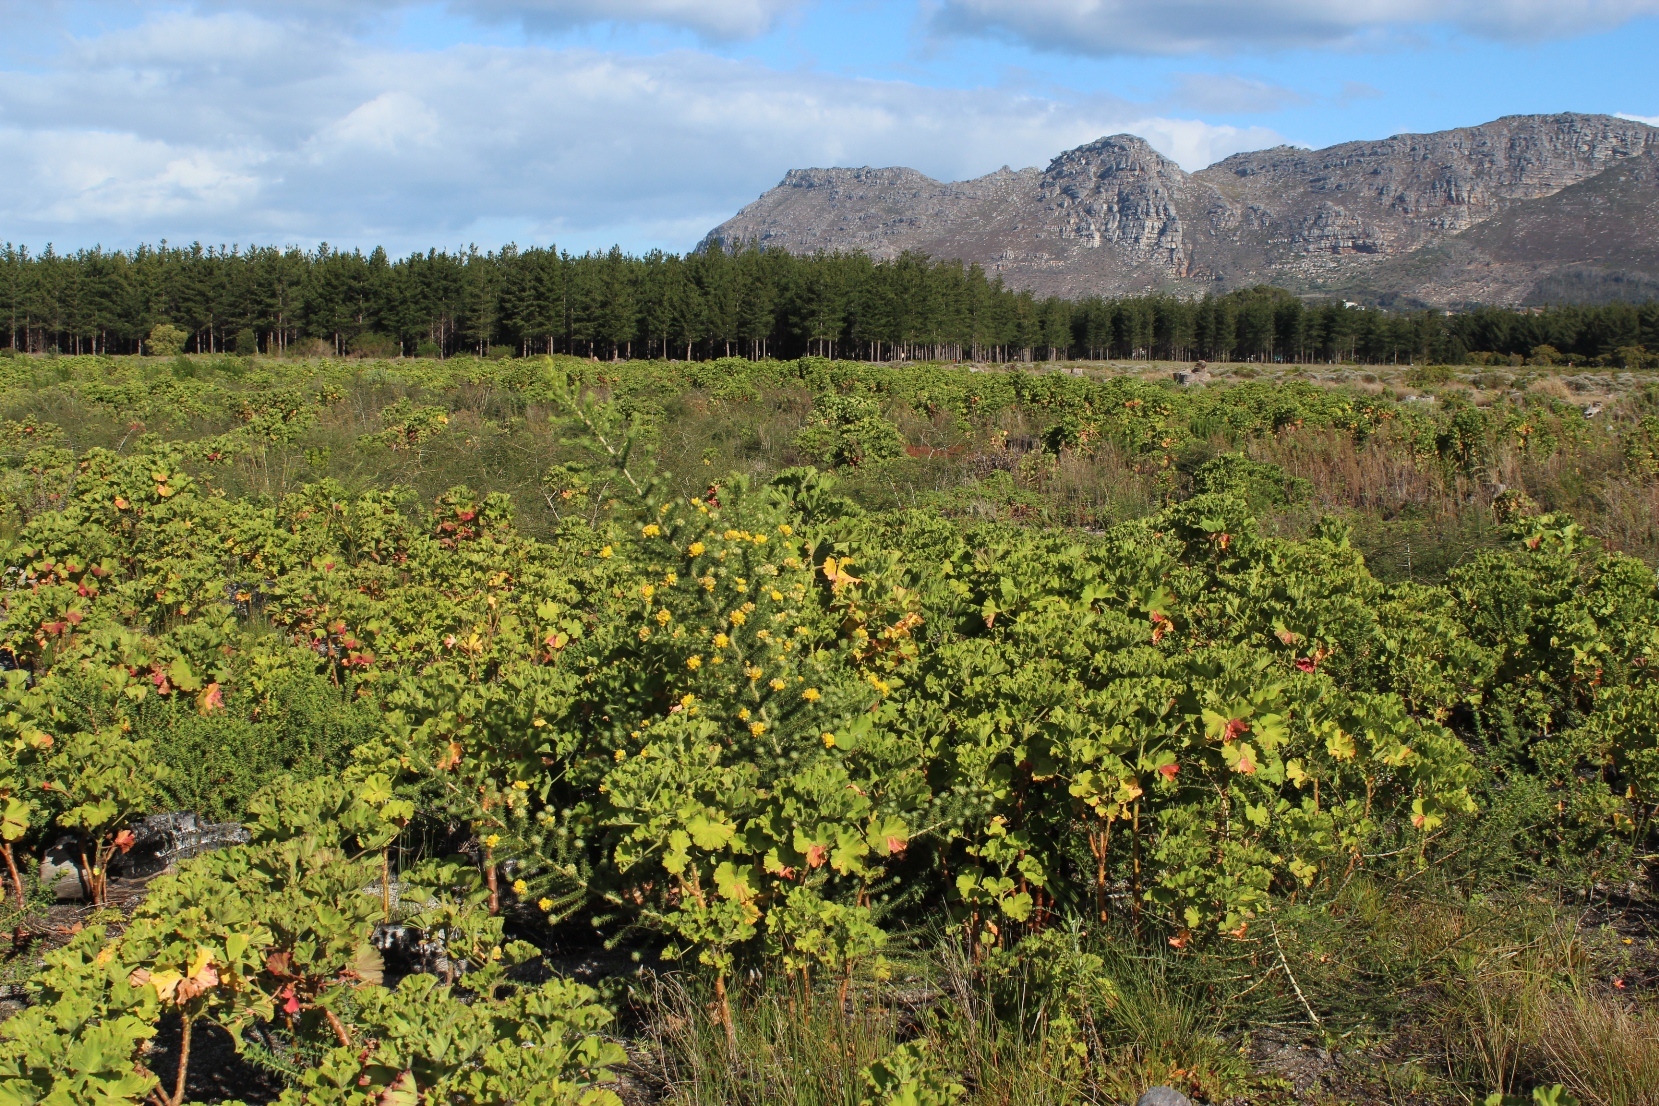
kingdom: Plantae
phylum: Tracheophyta
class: Magnoliopsida
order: Fabales
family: Fabaceae
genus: Aspalathus
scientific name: Aspalathus chenopoda
